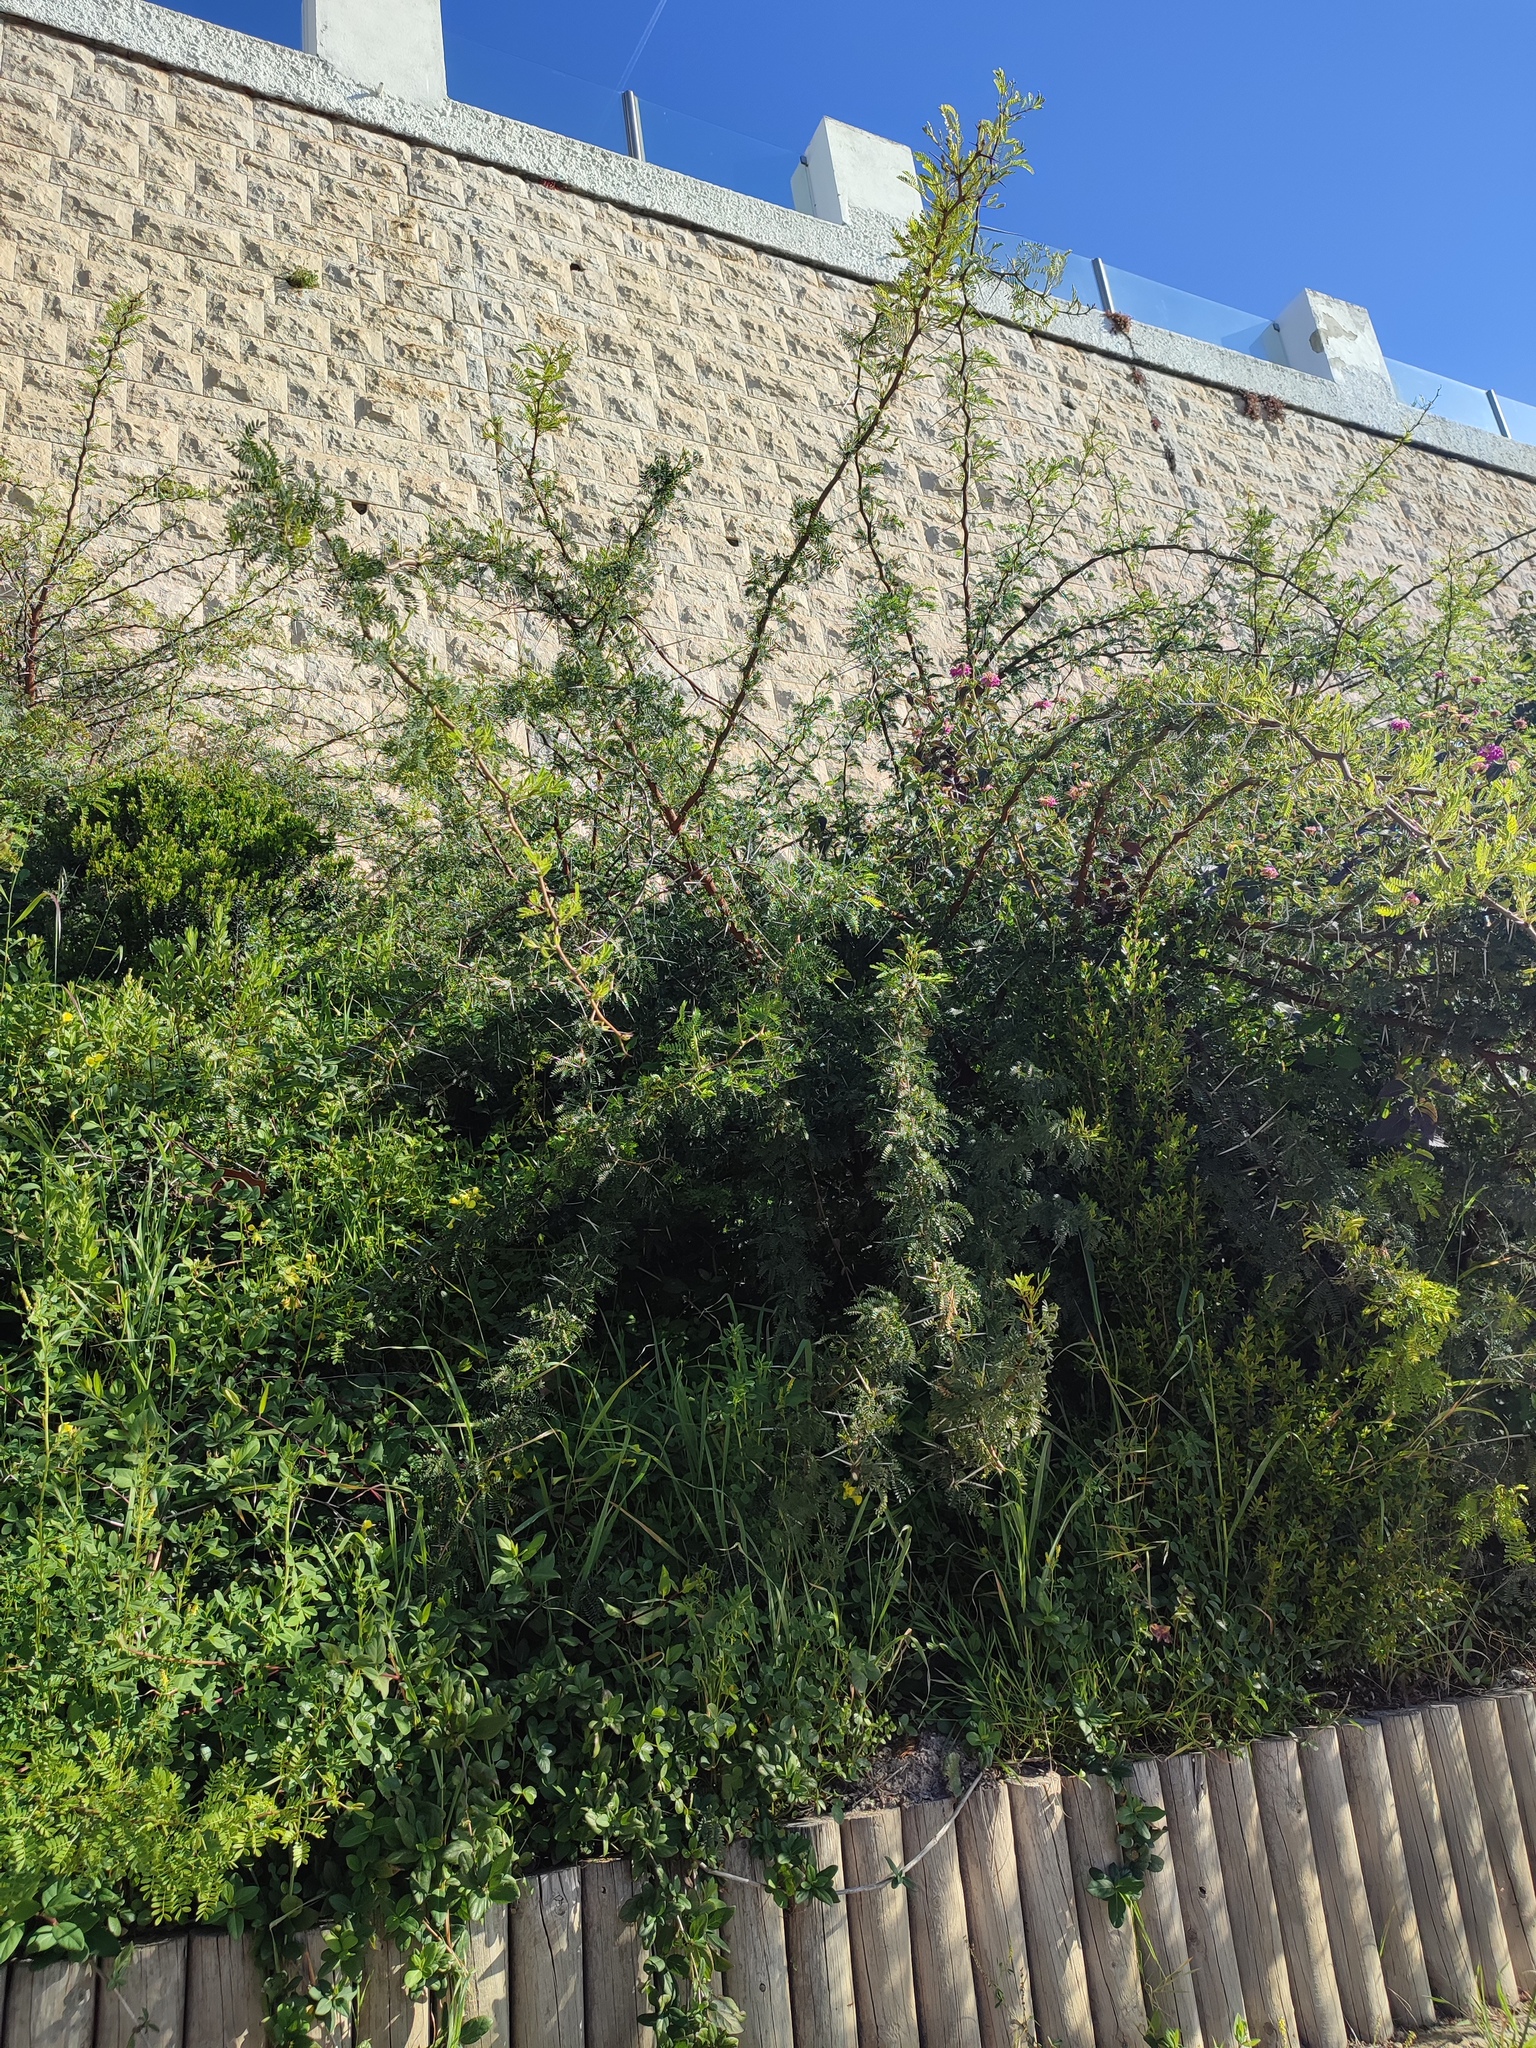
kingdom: Plantae
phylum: Tracheophyta
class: Magnoliopsida
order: Fabales
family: Fabaceae
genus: Vachellia
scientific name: Vachellia karroo
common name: Sweet thorn
